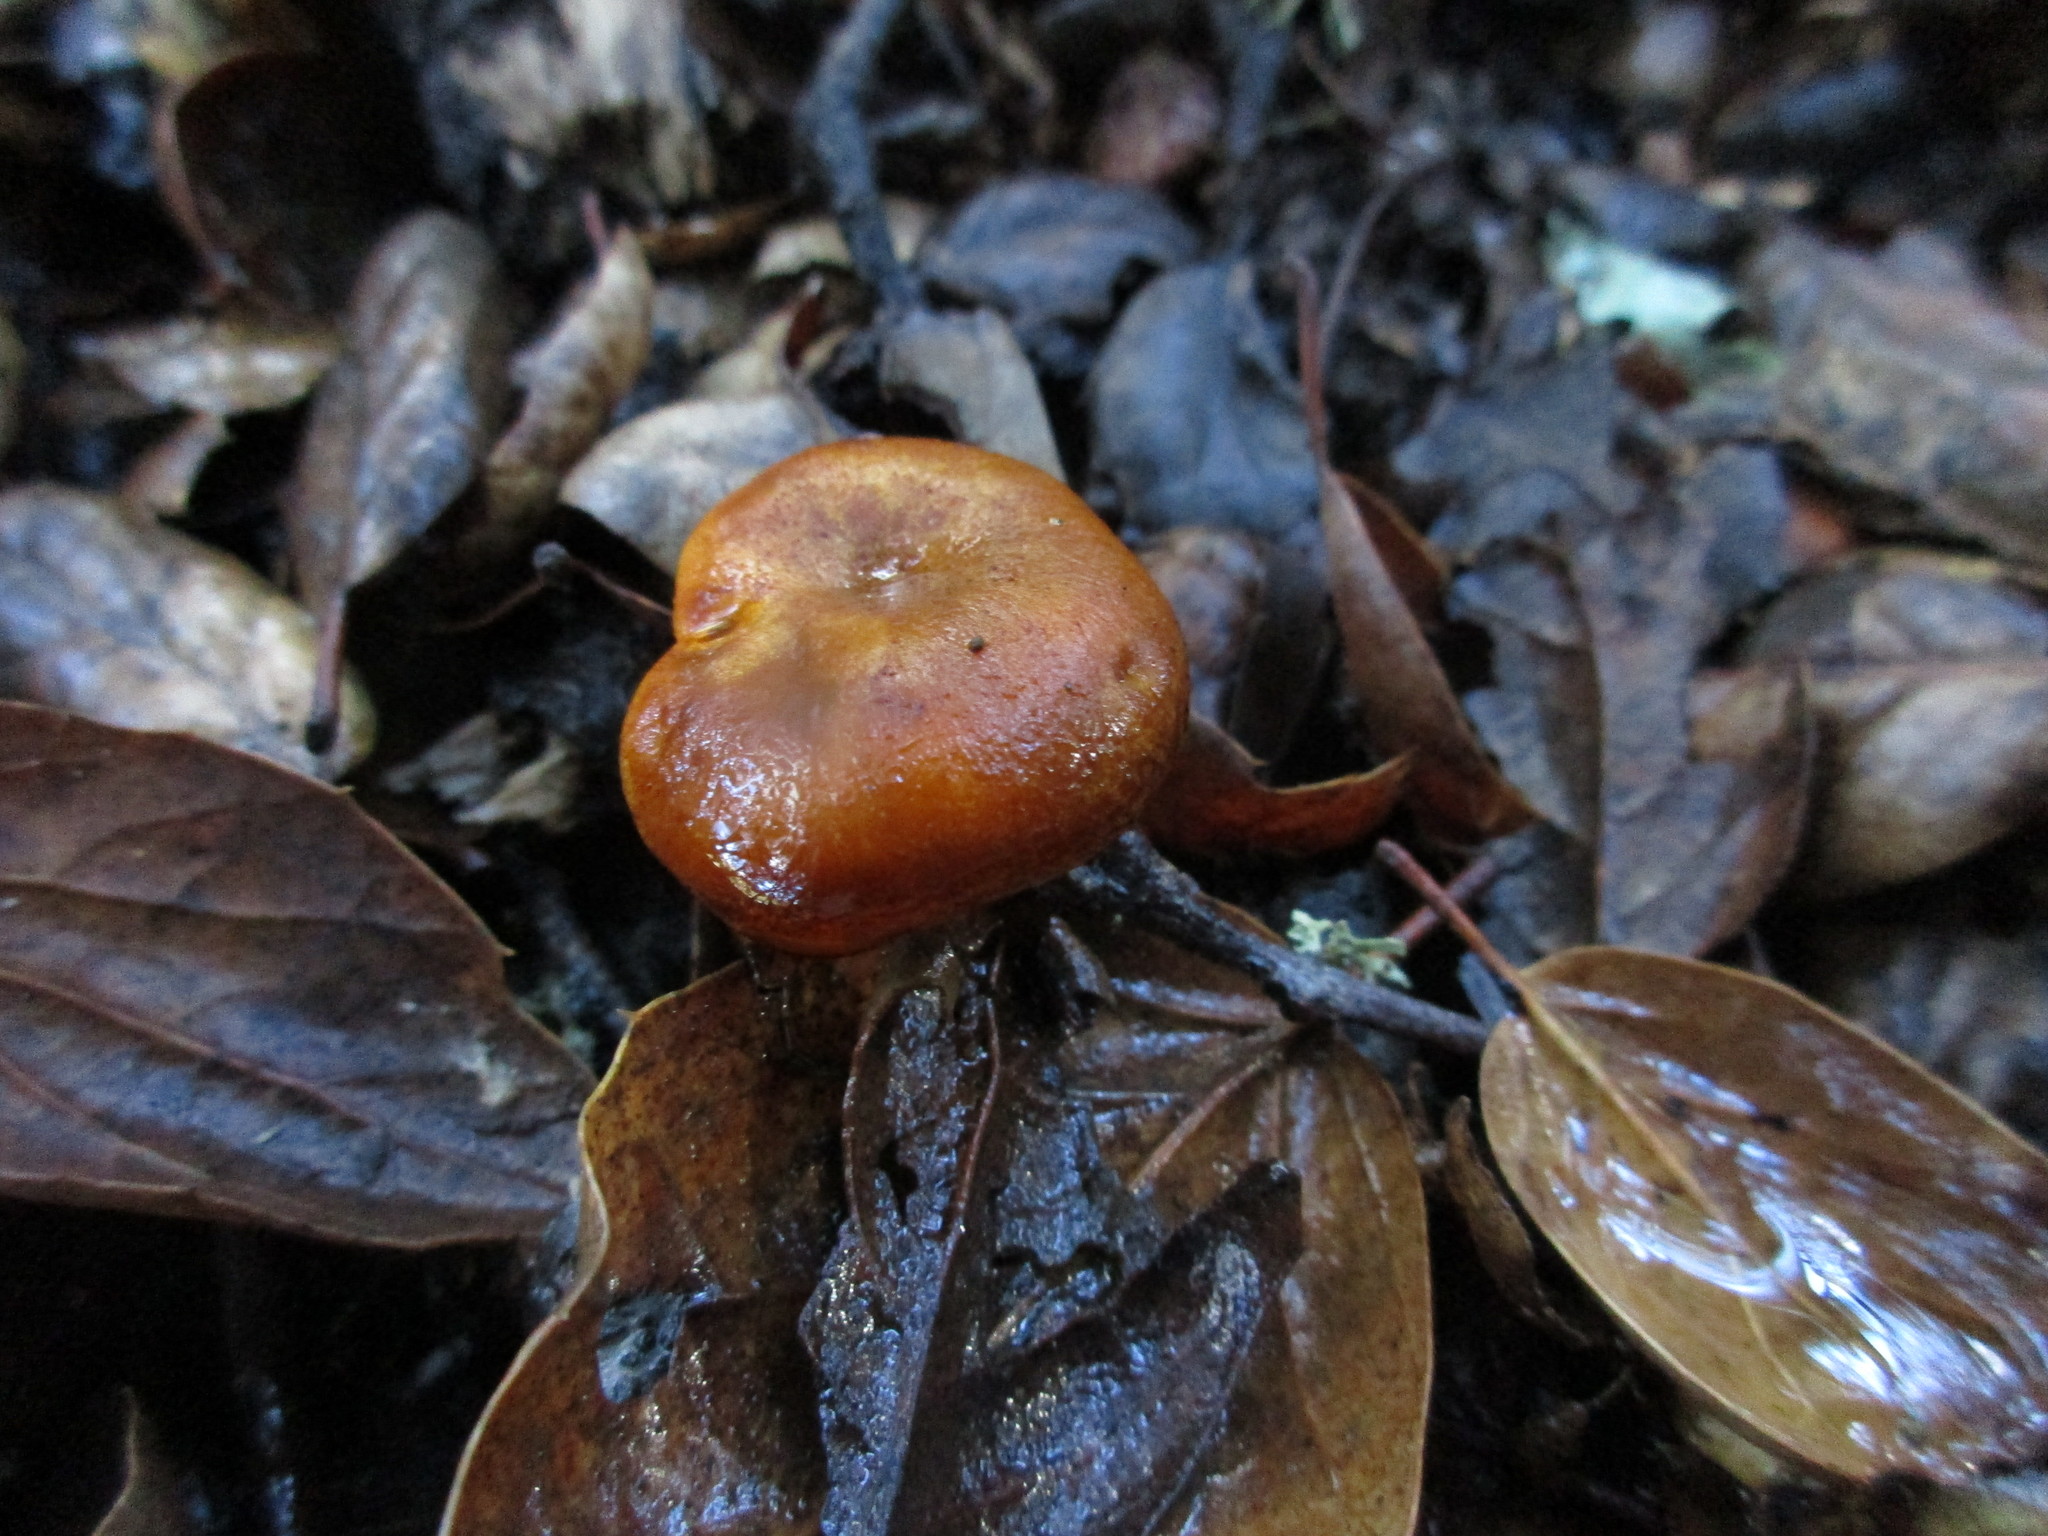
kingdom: Fungi
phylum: Basidiomycota
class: Agaricomycetes
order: Agaricales
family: Omphalotaceae
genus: Omphalotus
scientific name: Omphalotus olivascens
